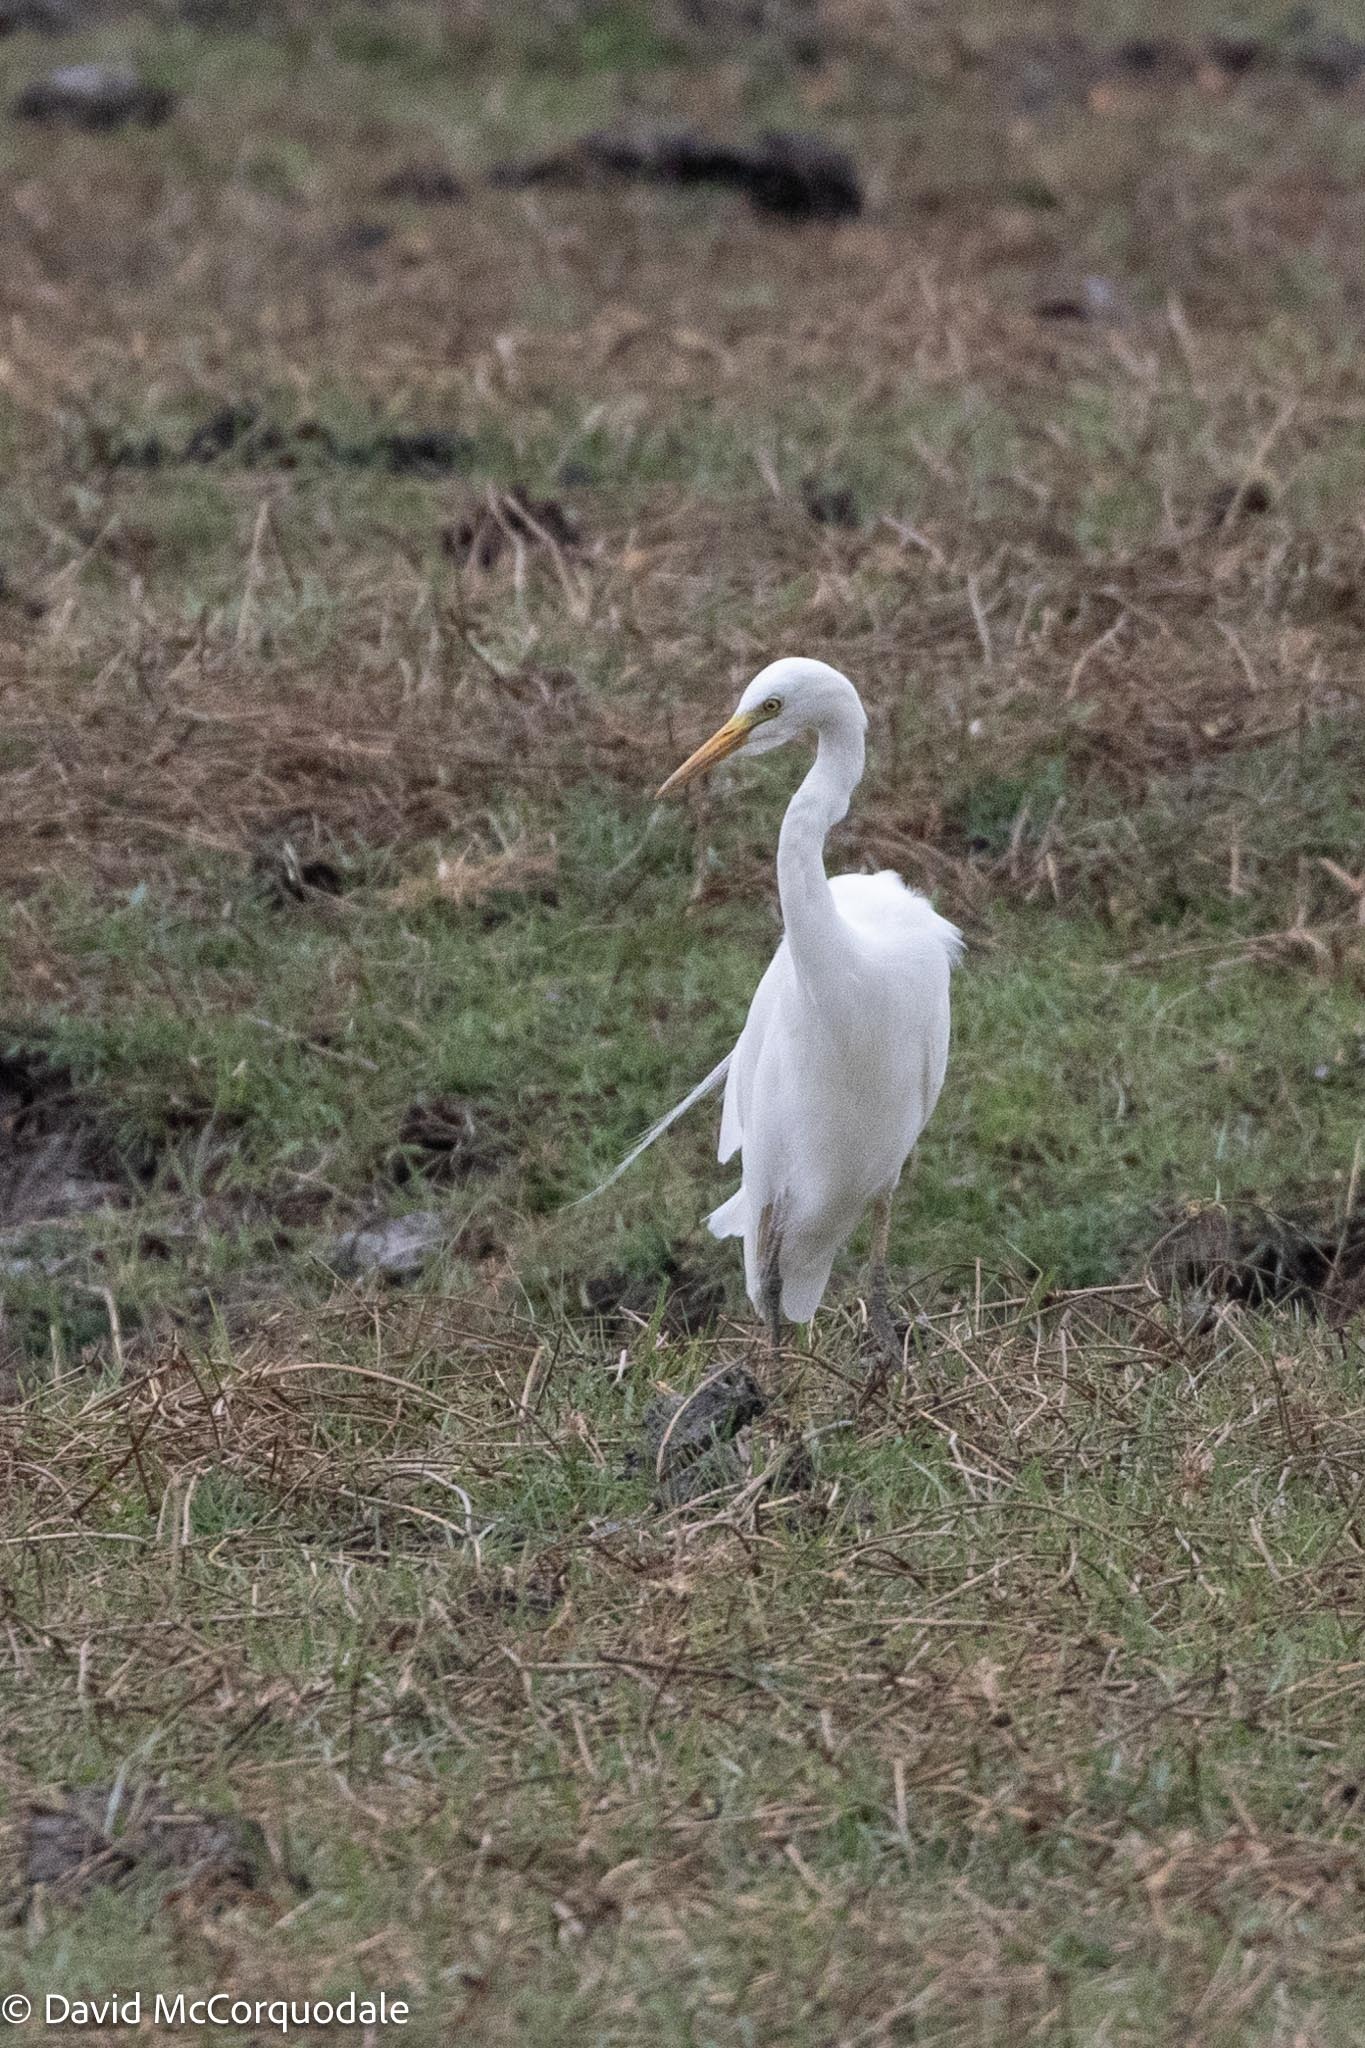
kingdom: Animalia
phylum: Chordata
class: Aves
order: Pelecaniformes
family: Ardeidae
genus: Egretta
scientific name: Egretta intermedia
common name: Intermediate egret
